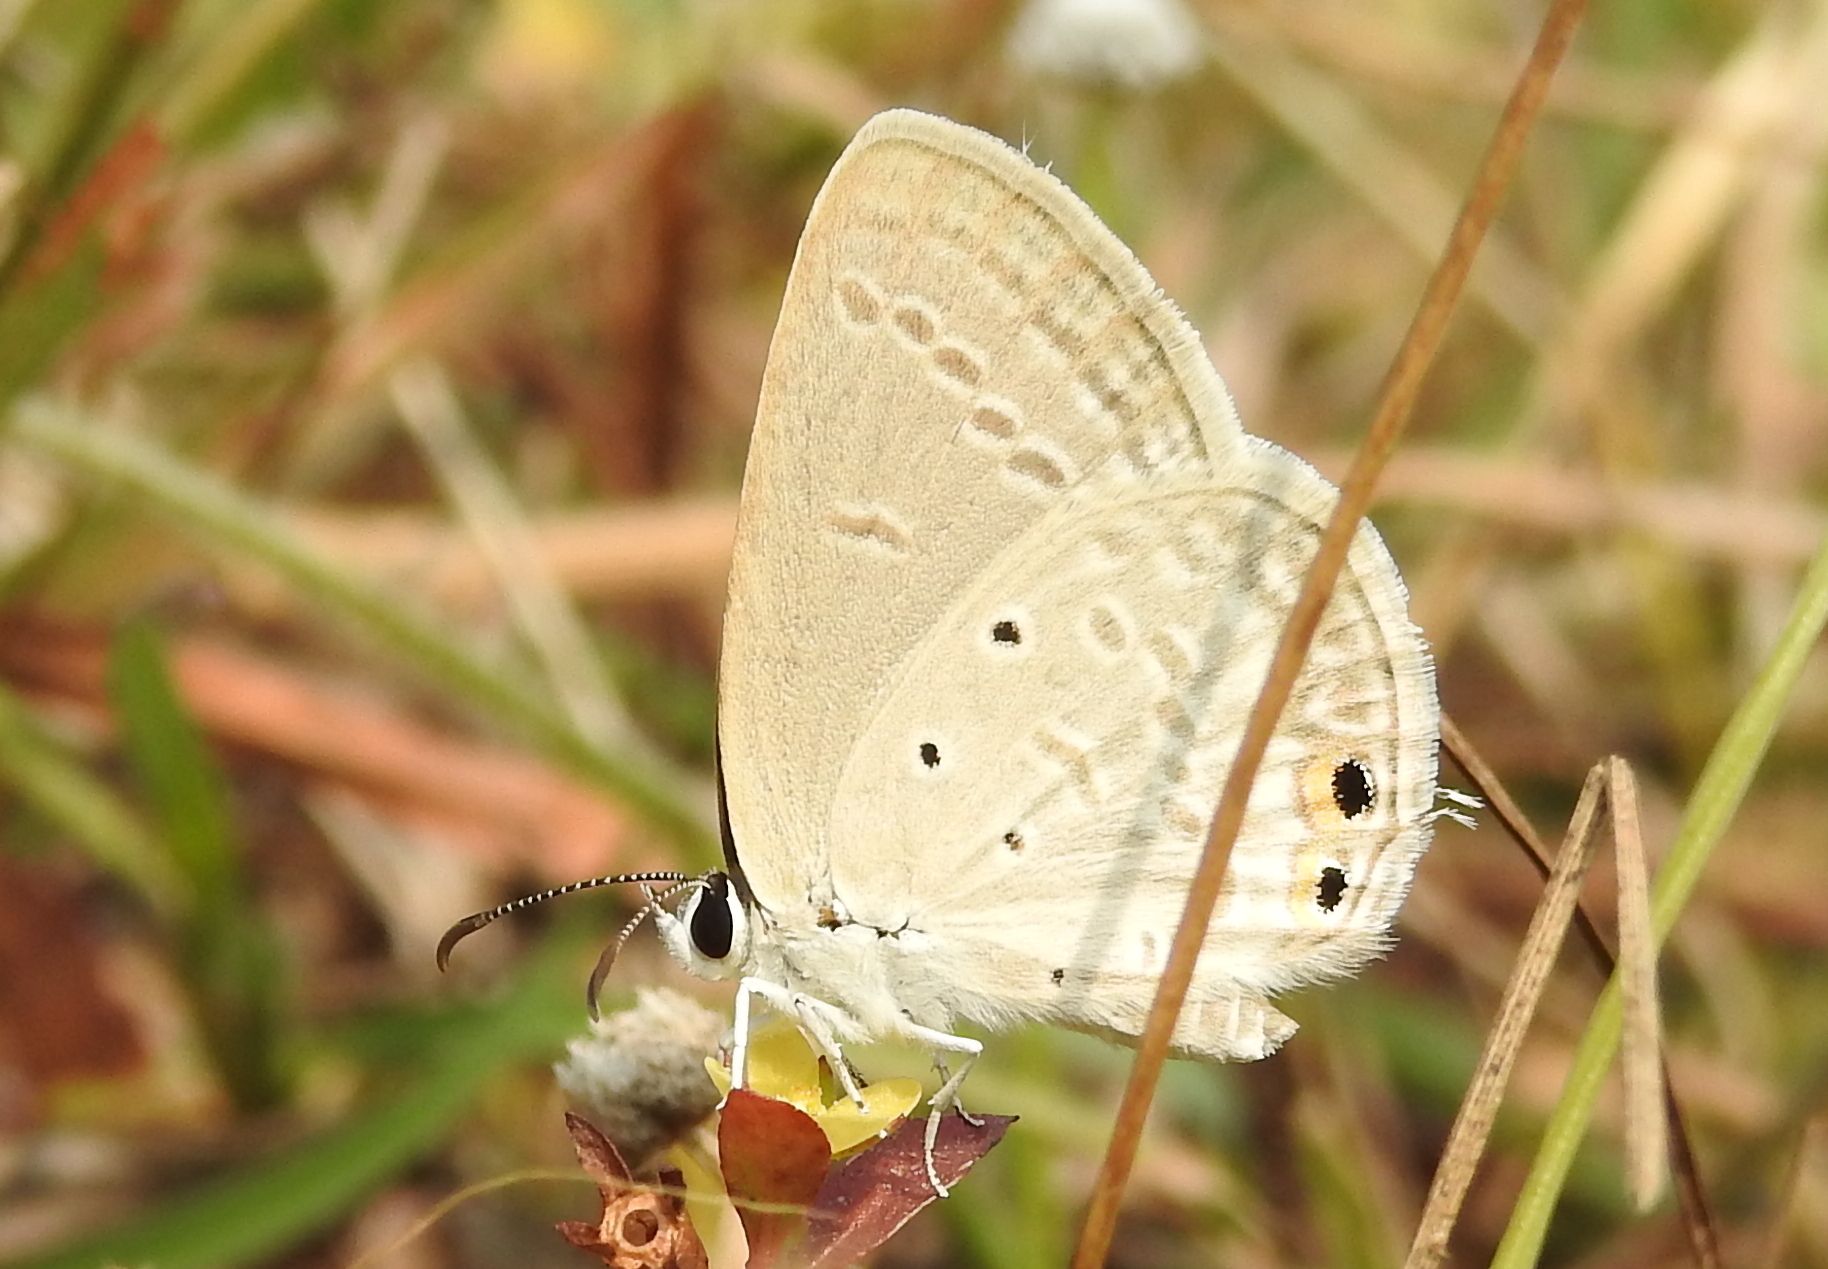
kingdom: Animalia
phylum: Arthropoda
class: Insecta
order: Lepidoptera
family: Lycaenidae
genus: Euchrysops
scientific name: Euchrysops cnejus
